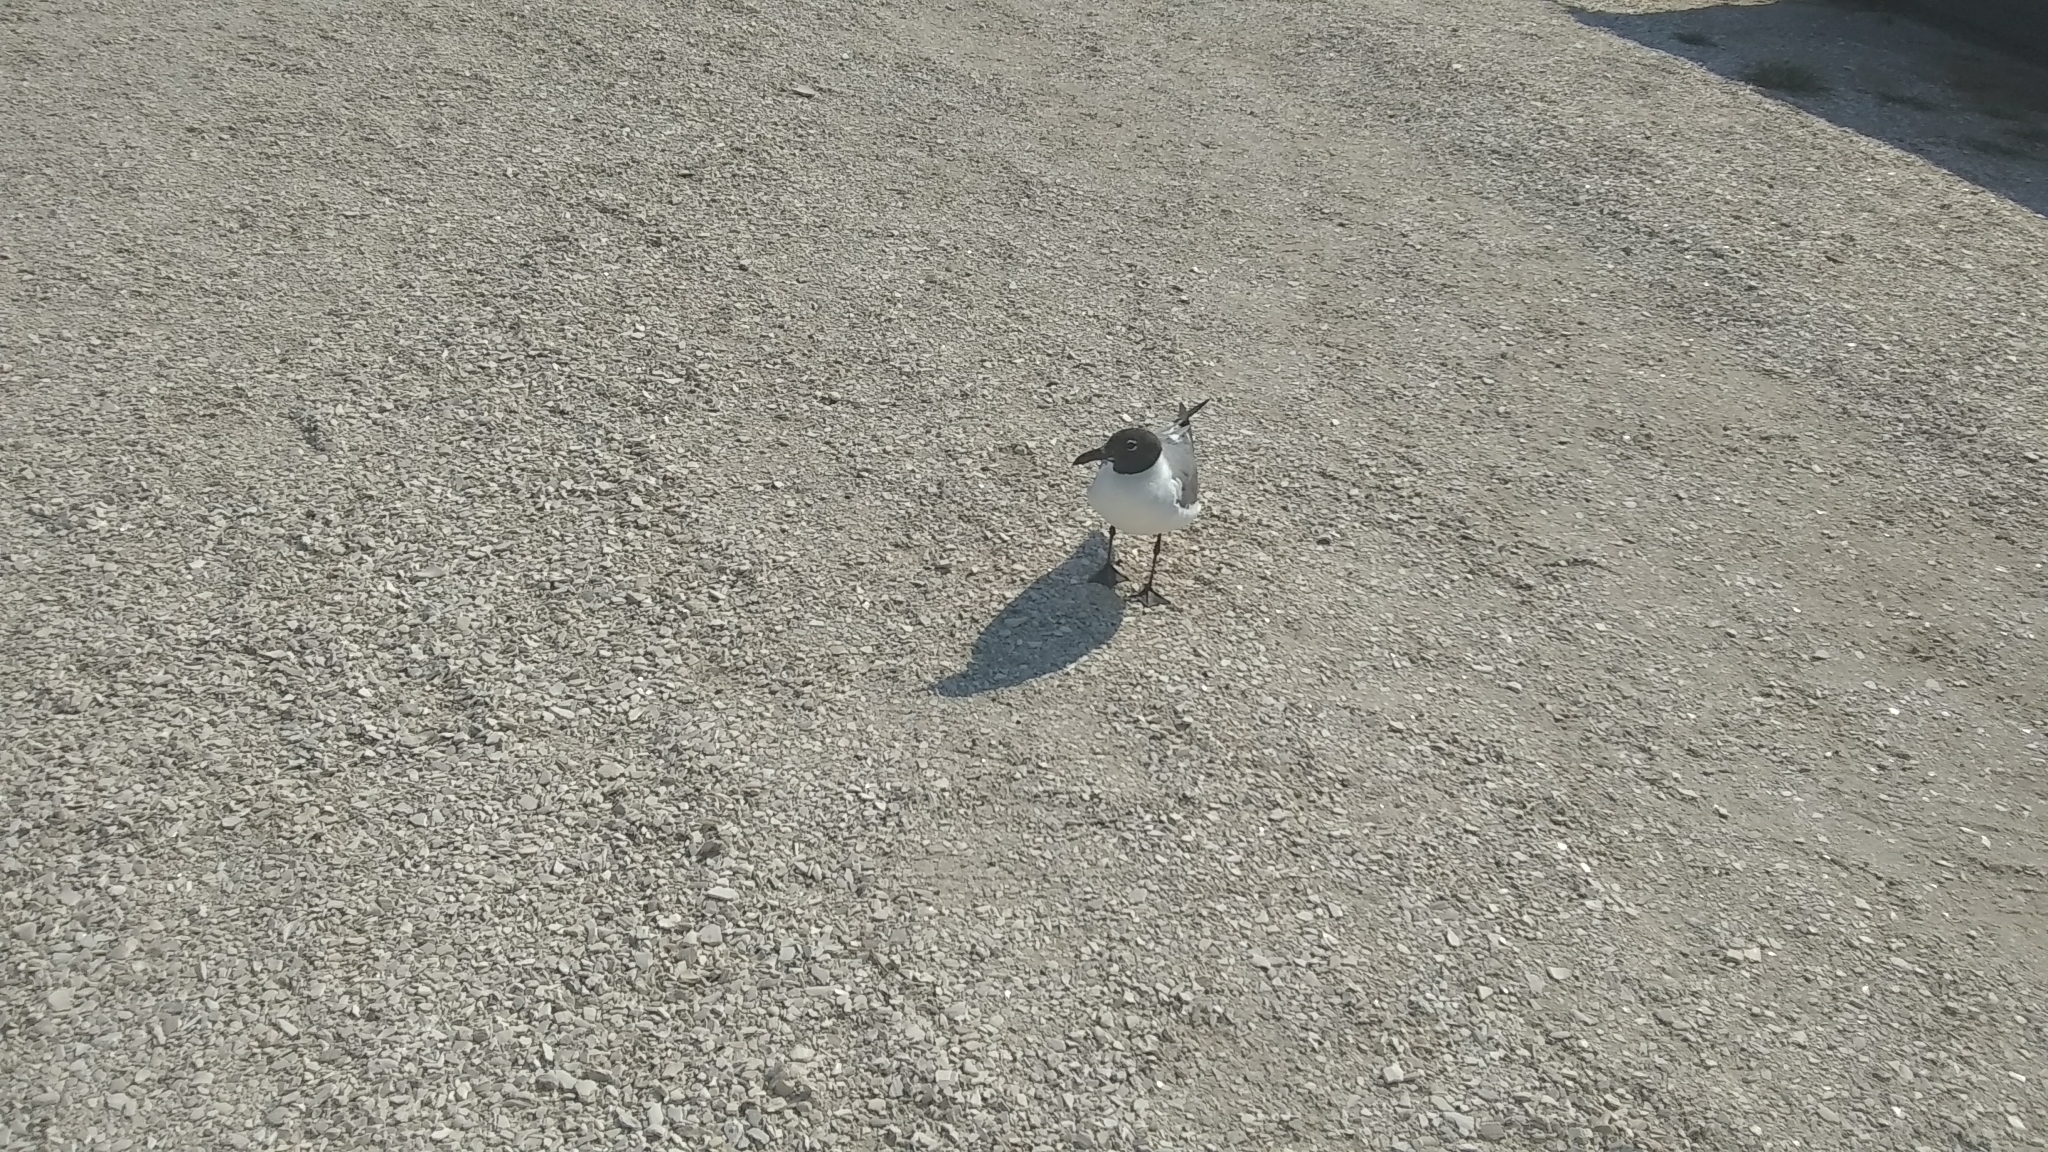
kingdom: Animalia
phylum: Chordata
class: Aves
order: Charadriiformes
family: Laridae
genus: Leucophaeus
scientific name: Leucophaeus atricilla
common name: Laughing gull
